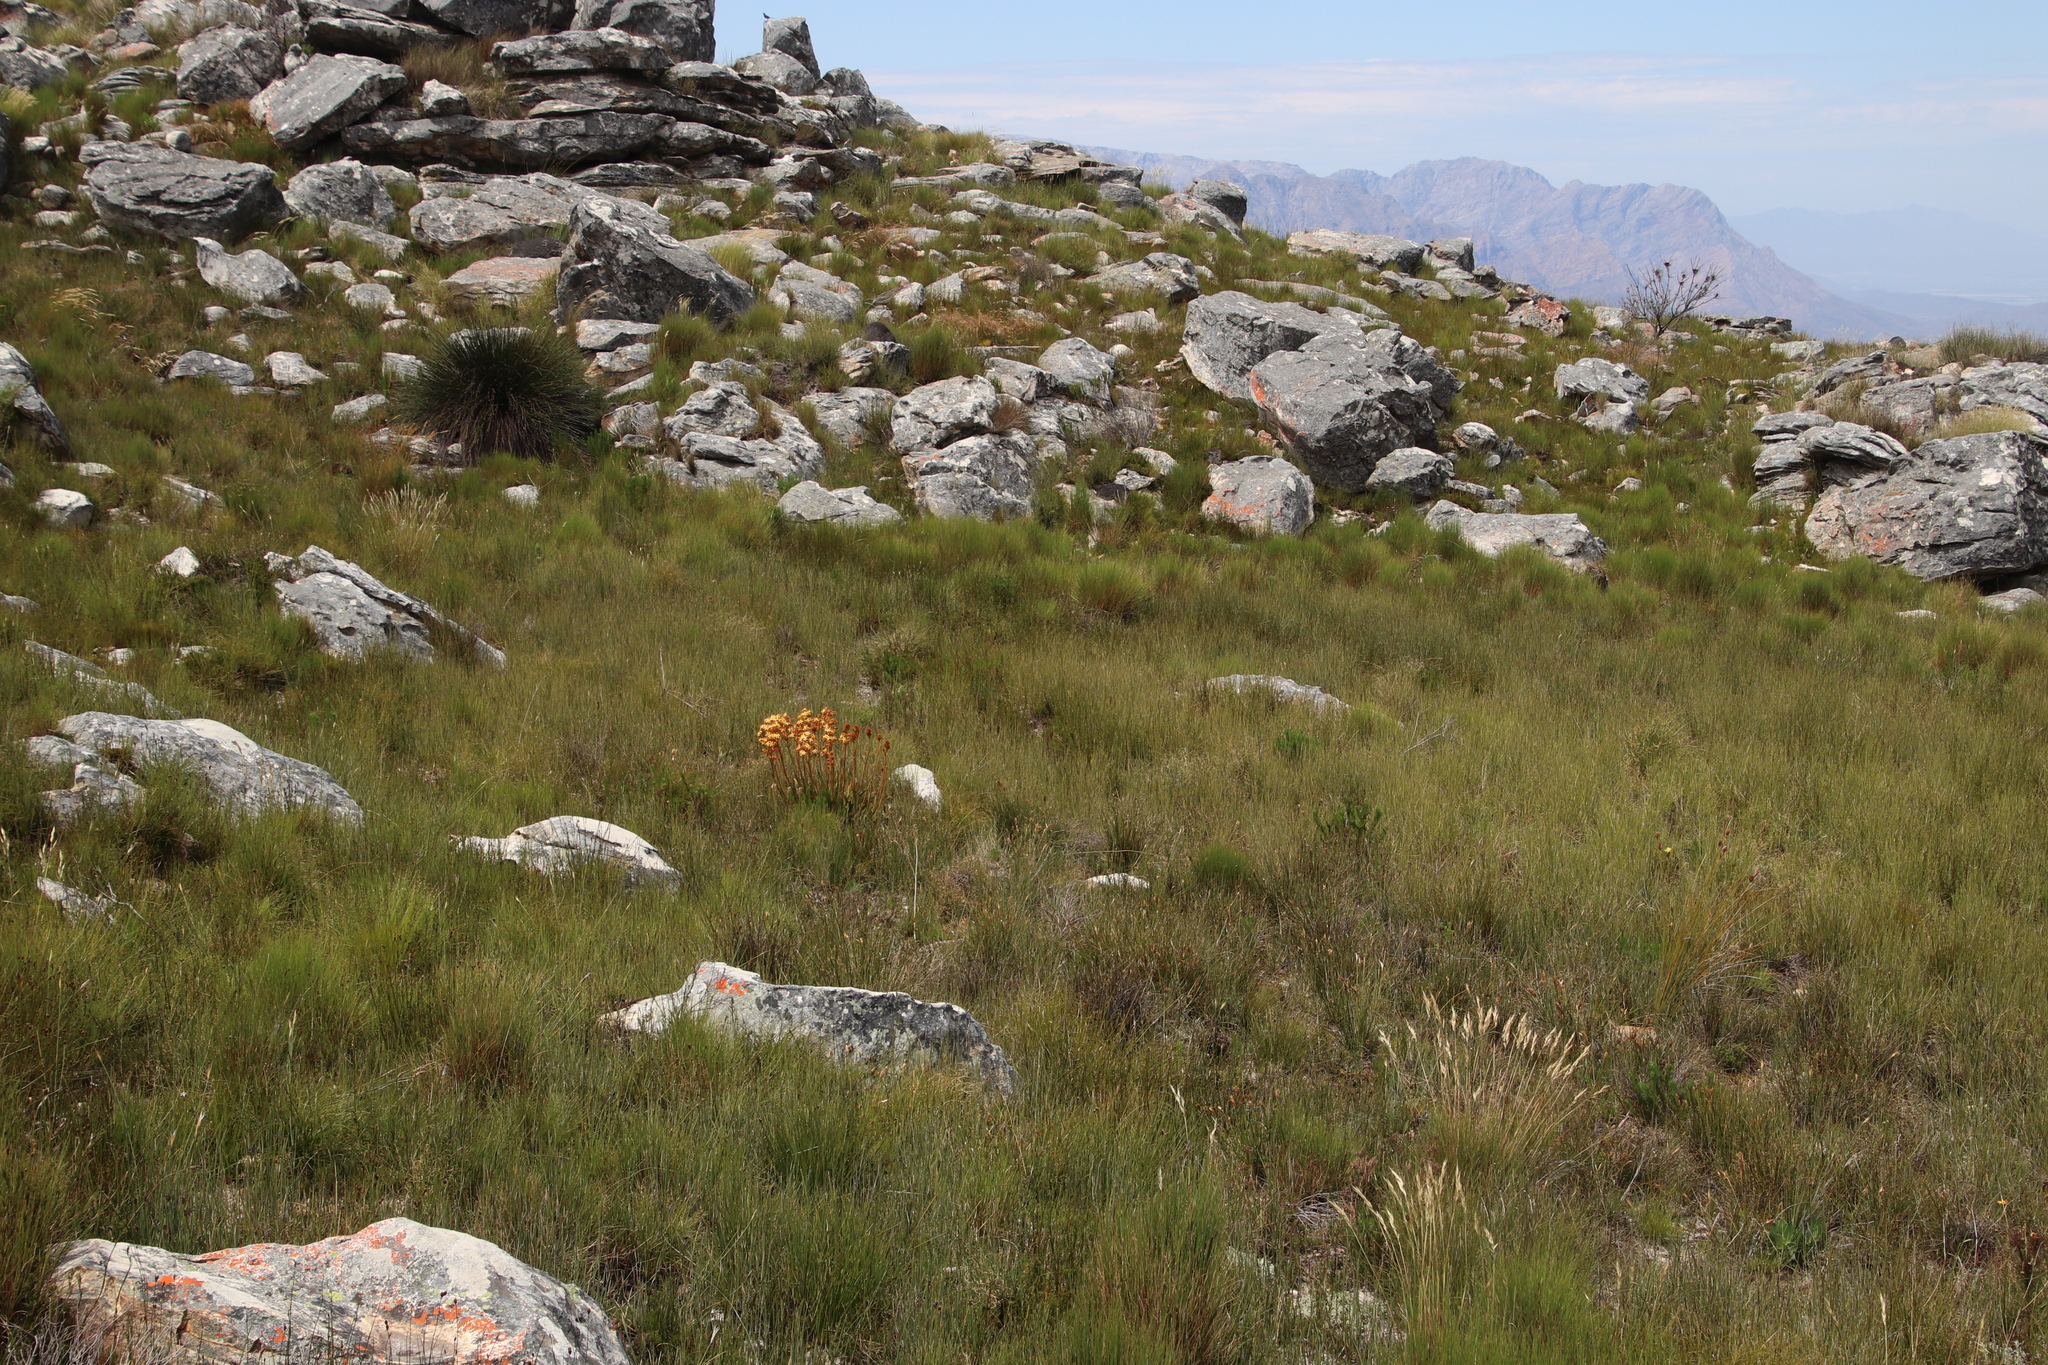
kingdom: Plantae
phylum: Tracheophyta
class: Liliopsida
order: Commelinales
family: Haemodoraceae
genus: Dilatris
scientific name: Dilatris viscosa
